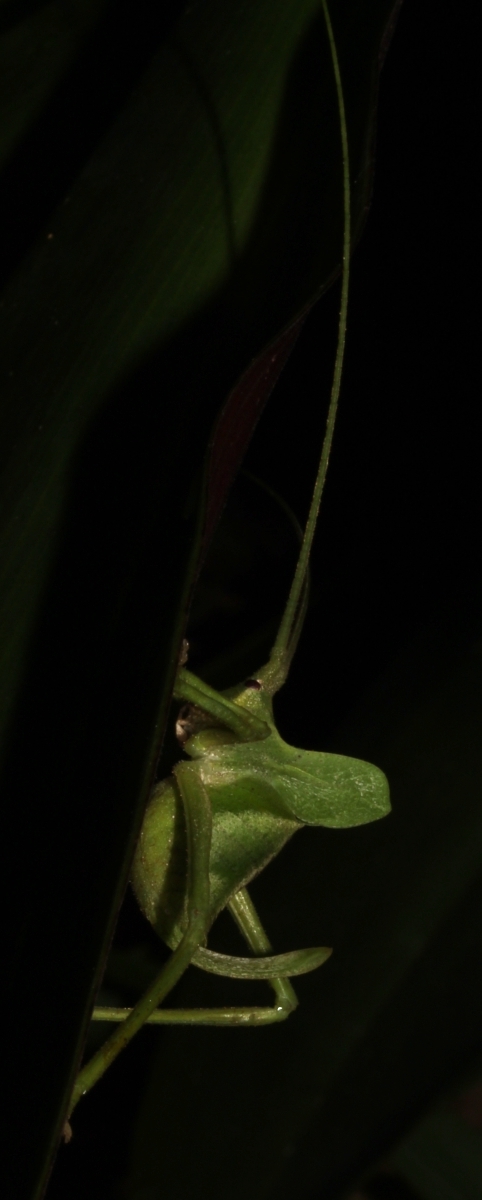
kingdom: Animalia
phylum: Arthropoda
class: Insecta
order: Orthoptera
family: Tettigoniidae
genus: Roxelana
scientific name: Roxelana
